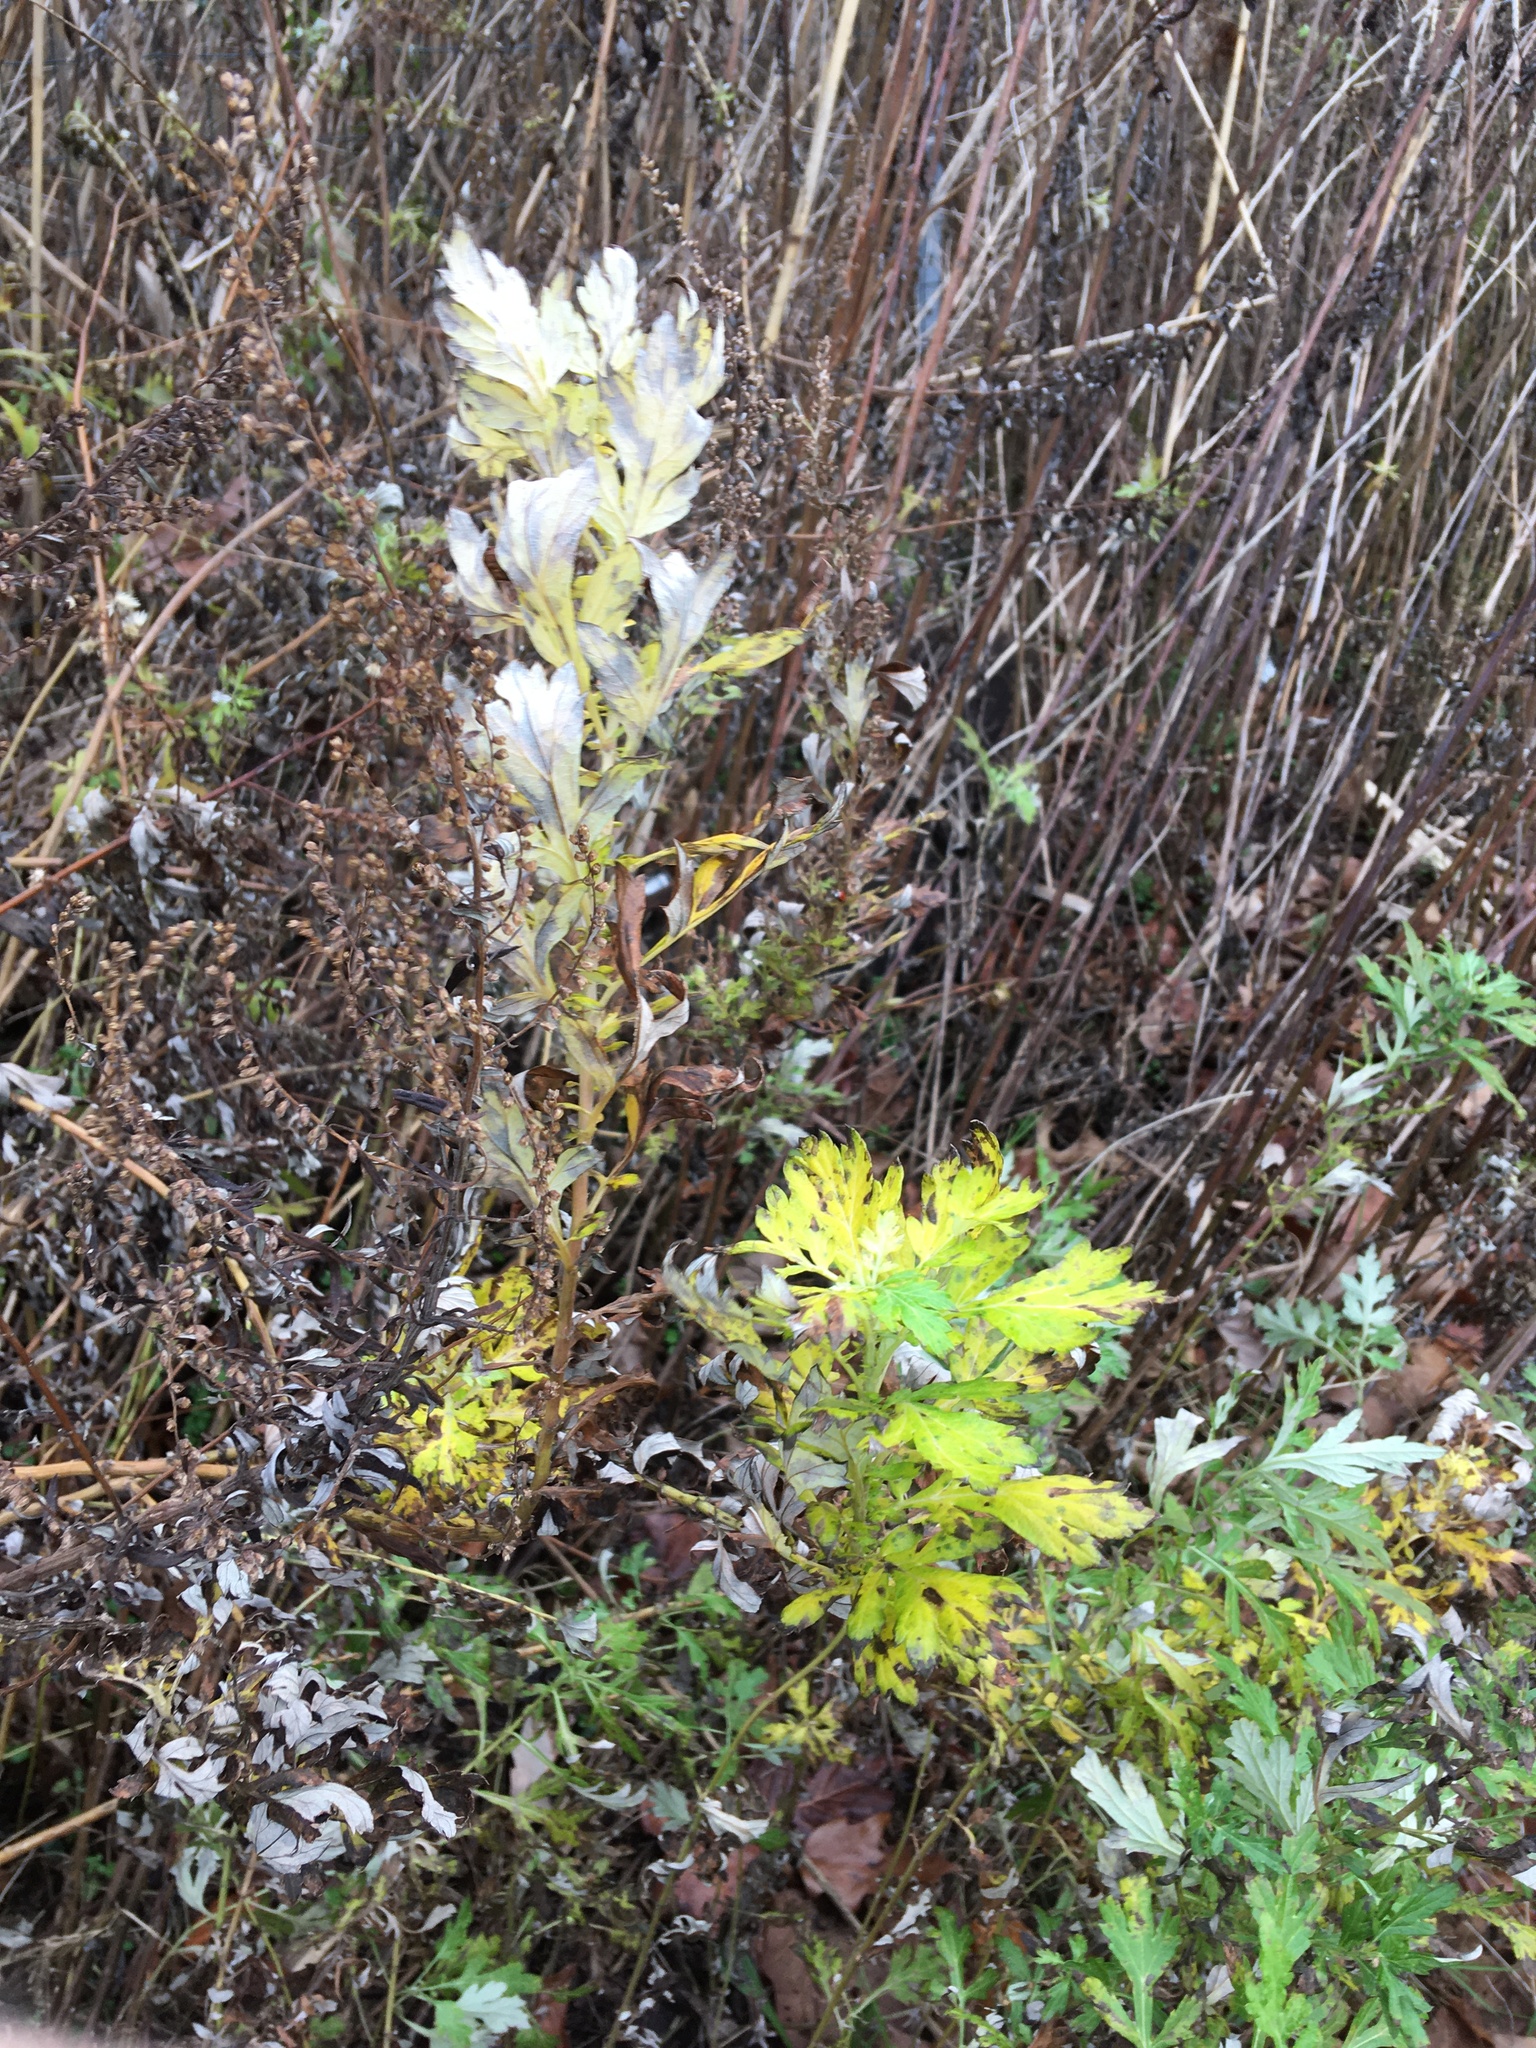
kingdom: Plantae
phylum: Tracheophyta
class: Magnoliopsida
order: Asterales
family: Asteraceae
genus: Artemisia
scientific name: Artemisia vulgaris
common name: Mugwort
